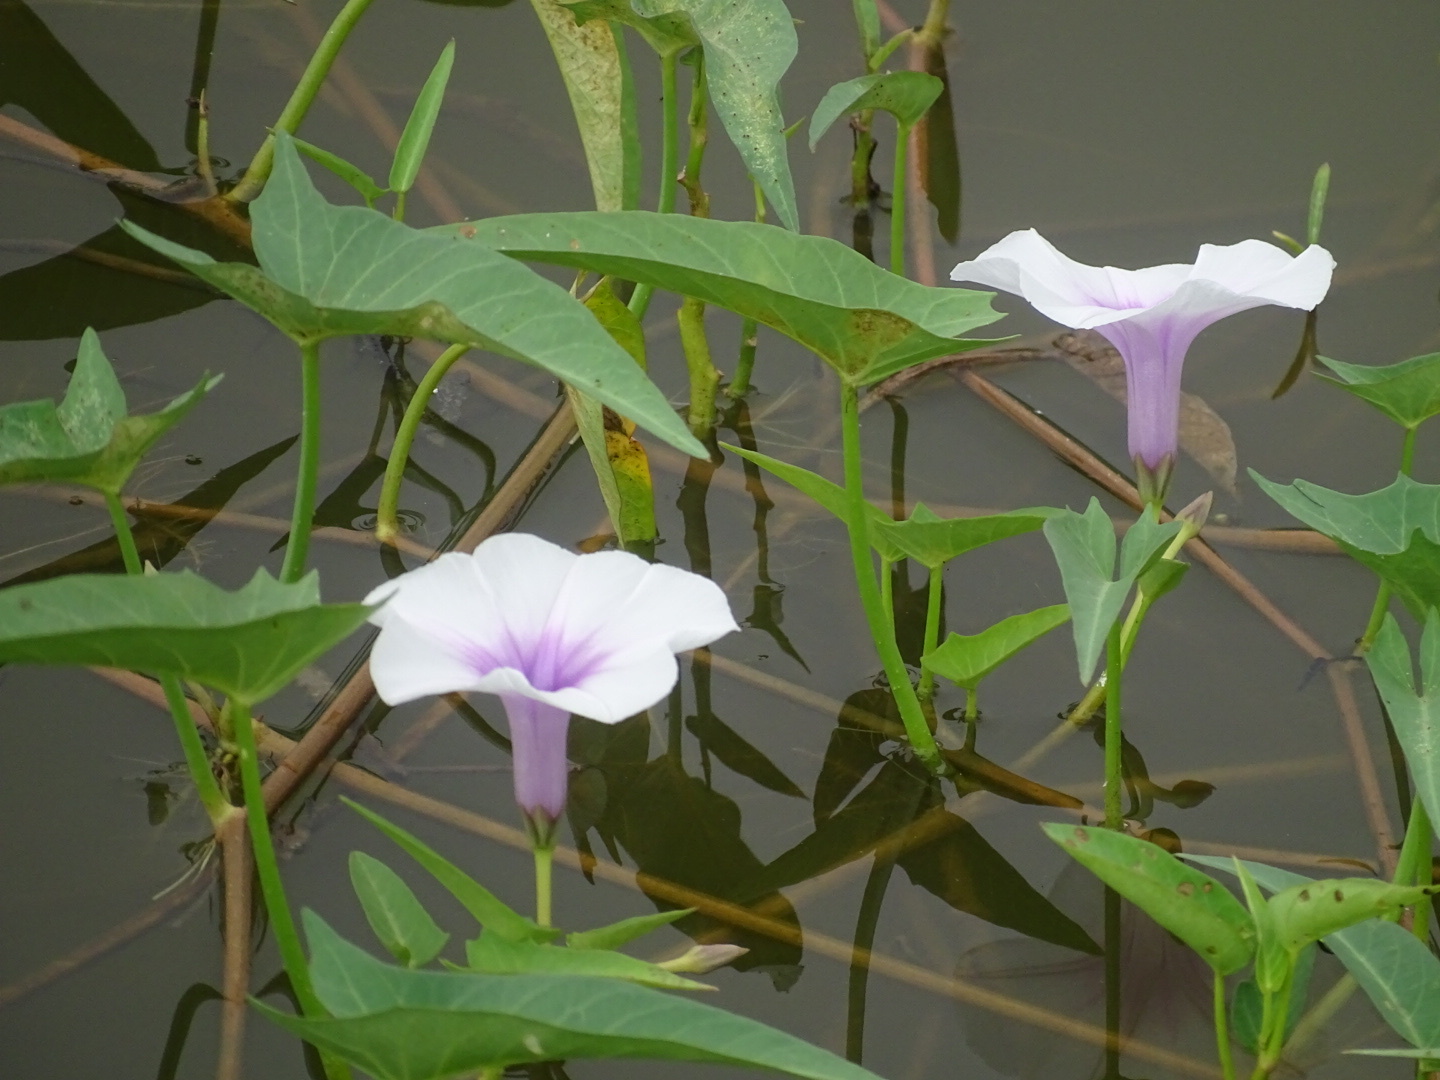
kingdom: Plantae
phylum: Tracheophyta
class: Magnoliopsida
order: Solanales
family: Convolvulaceae
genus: Ipomoea
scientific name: Ipomoea aquatica
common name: Swamp morning-glory
